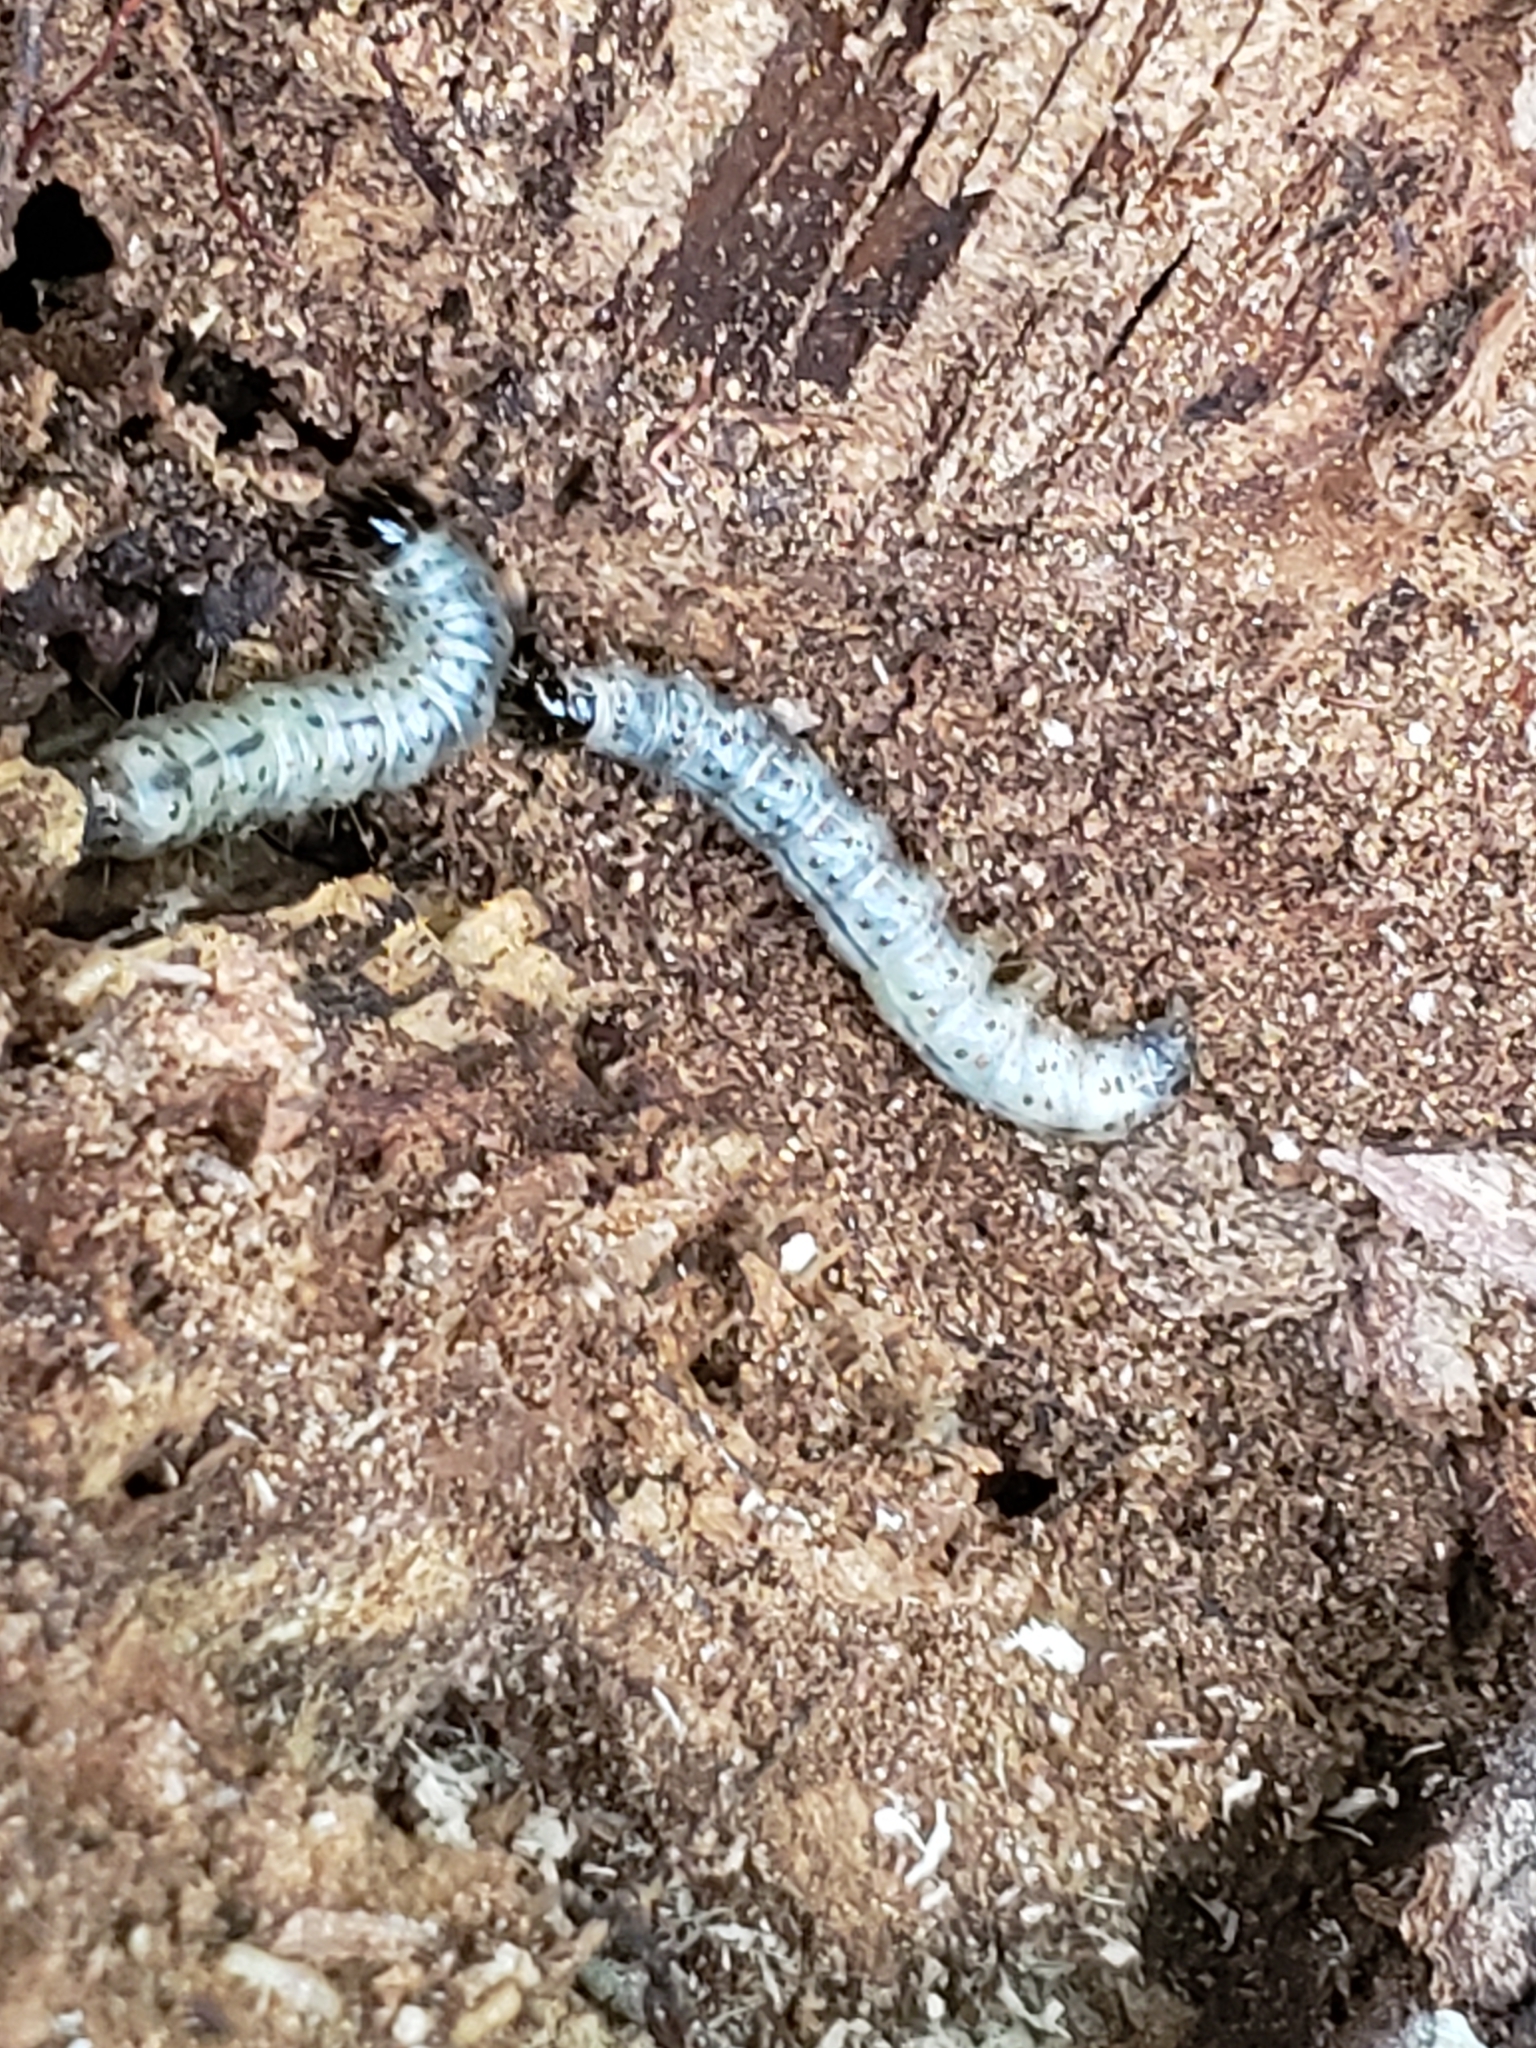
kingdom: Animalia
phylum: Arthropoda
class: Insecta
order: Lepidoptera
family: Erebidae
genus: Scolecocampa
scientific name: Scolecocampa liburna
